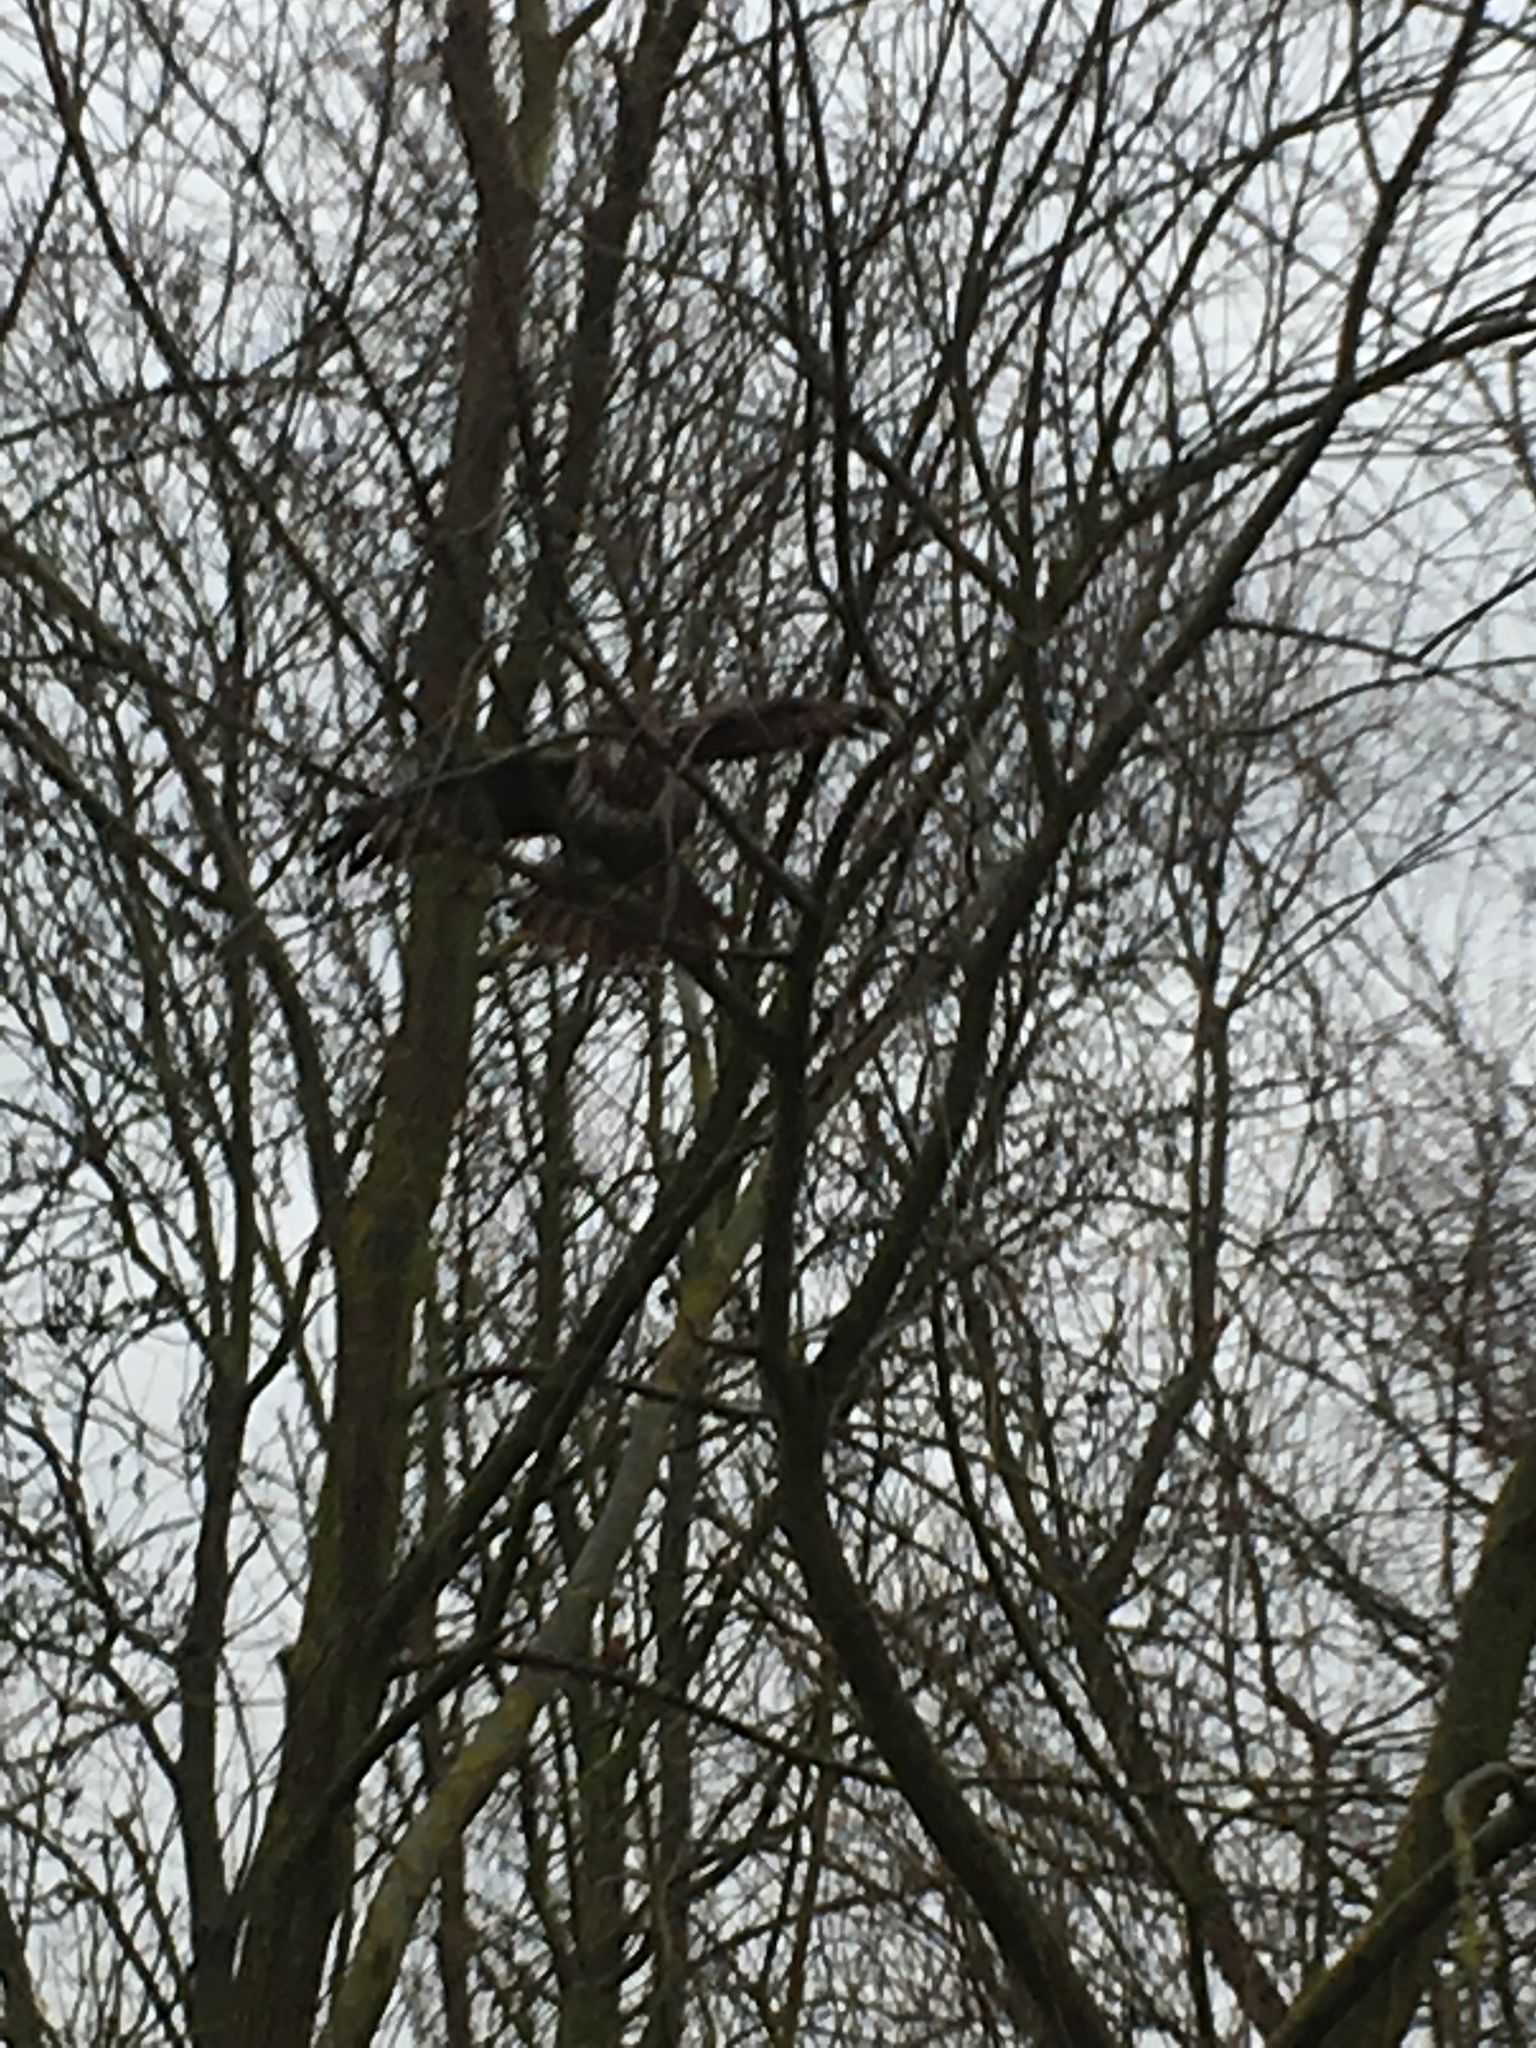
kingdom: Animalia
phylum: Chordata
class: Aves
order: Accipitriformes
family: Accipitridae
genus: Buteo
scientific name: Buteo buteo
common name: Common buzzard
